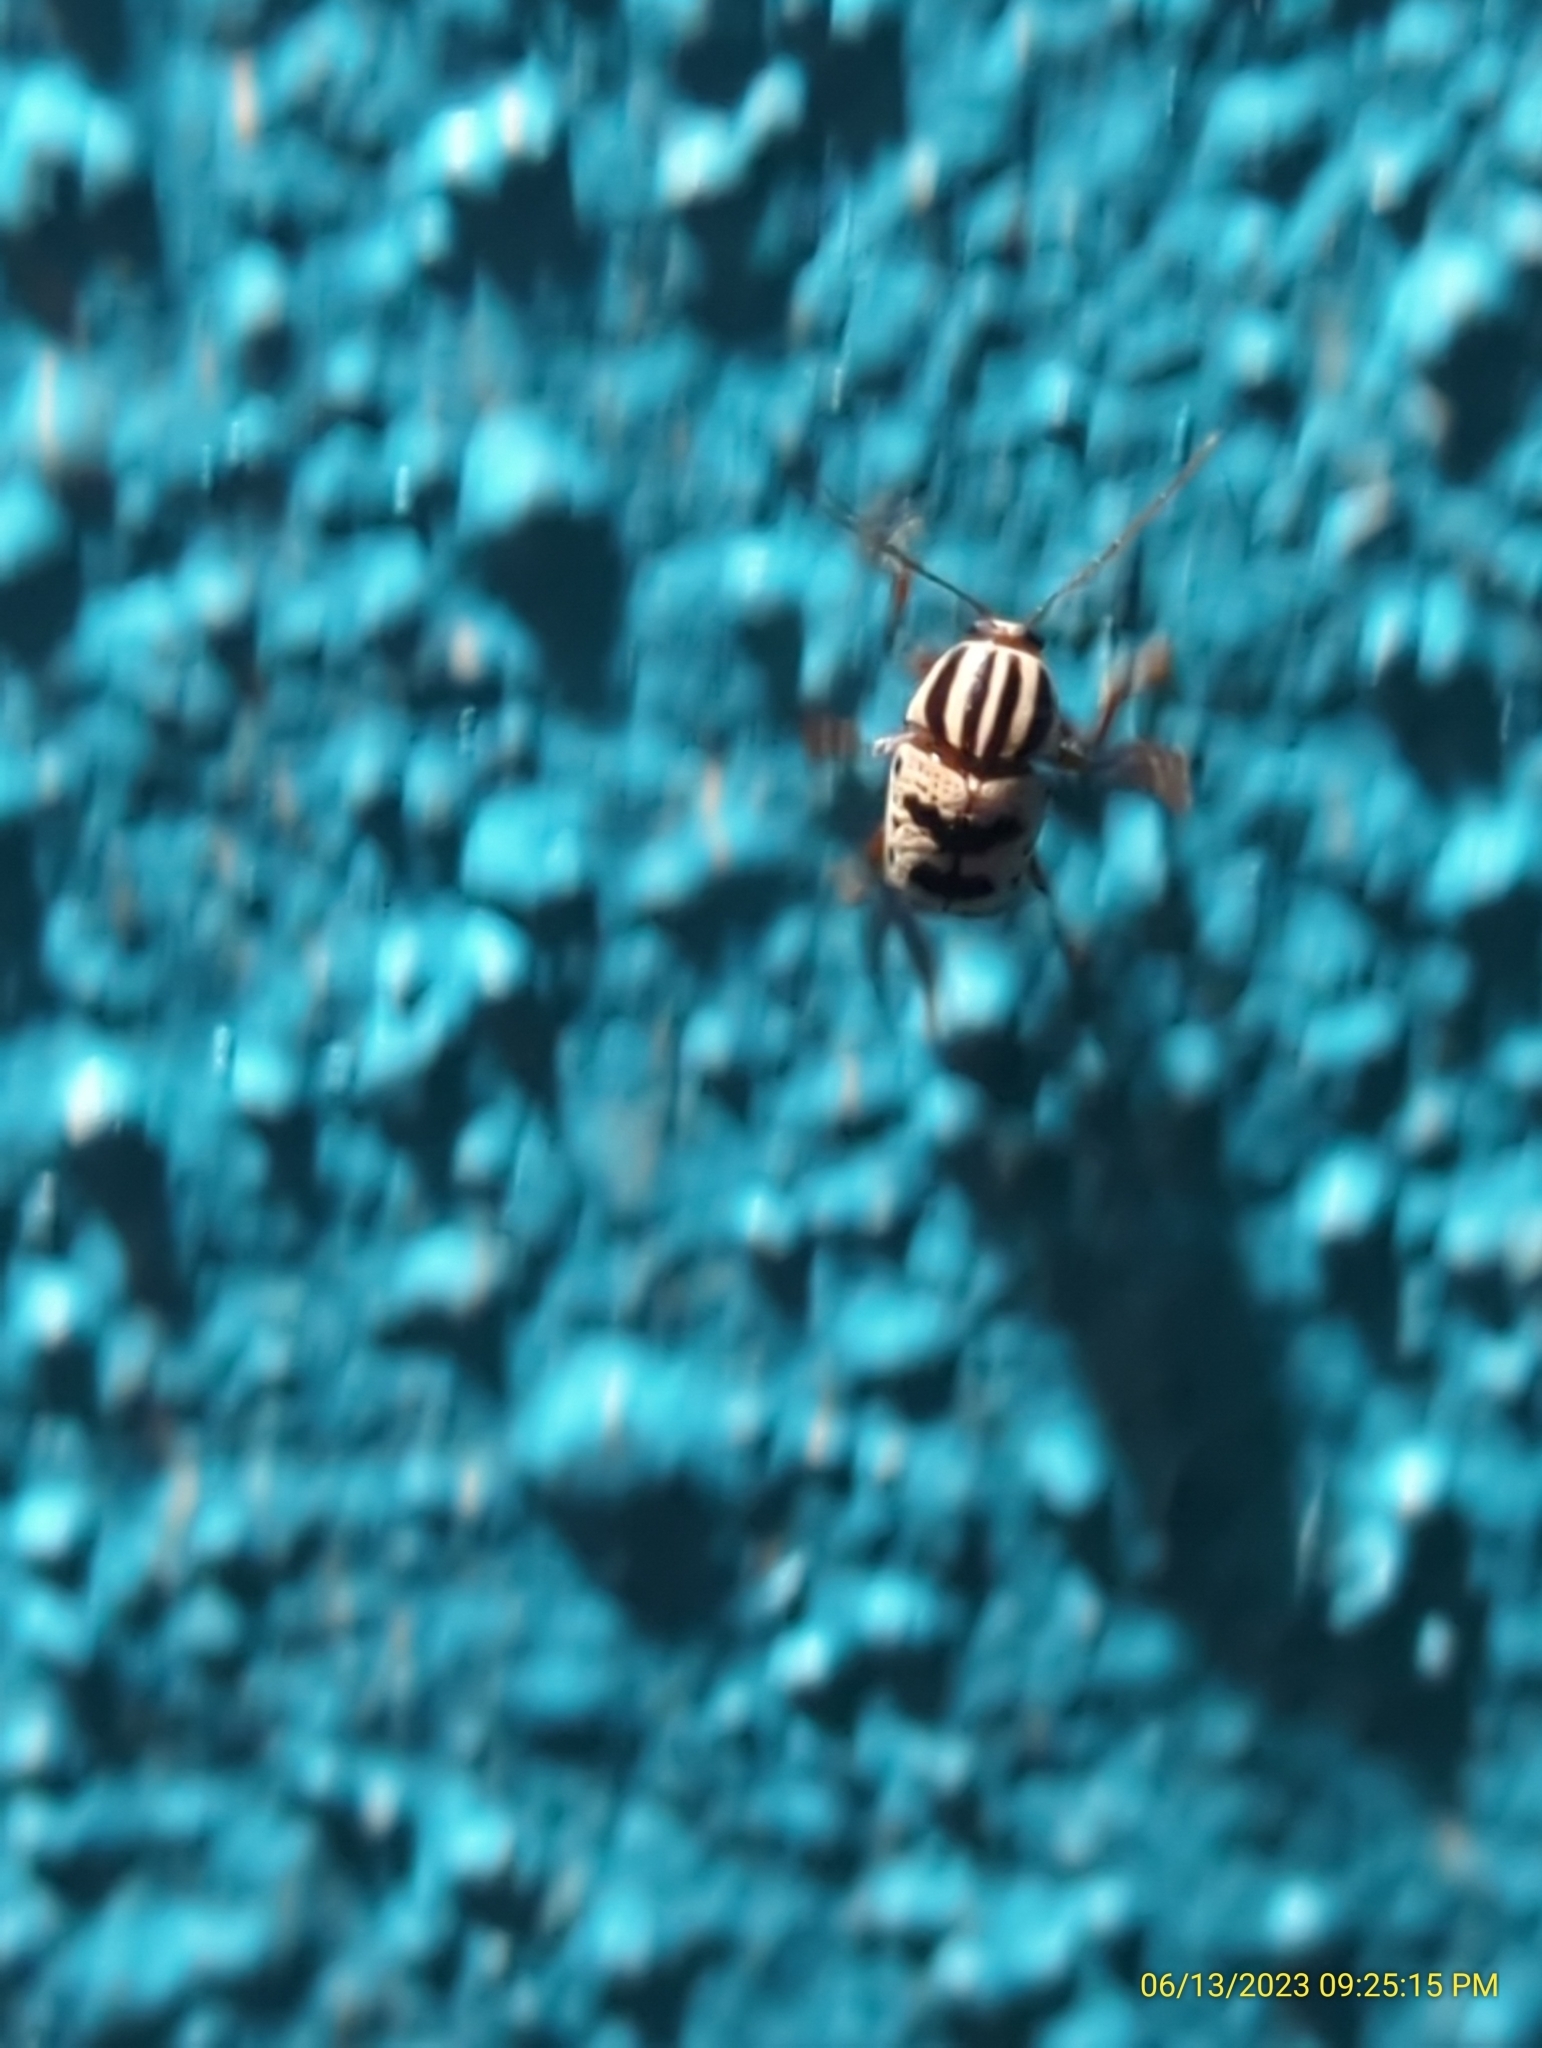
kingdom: Animalia
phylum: Arthropoda
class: Insecta
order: Coleoptera
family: Chrysomelidae
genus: Cryptocephalus
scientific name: Cryptocephalus leucomelas
